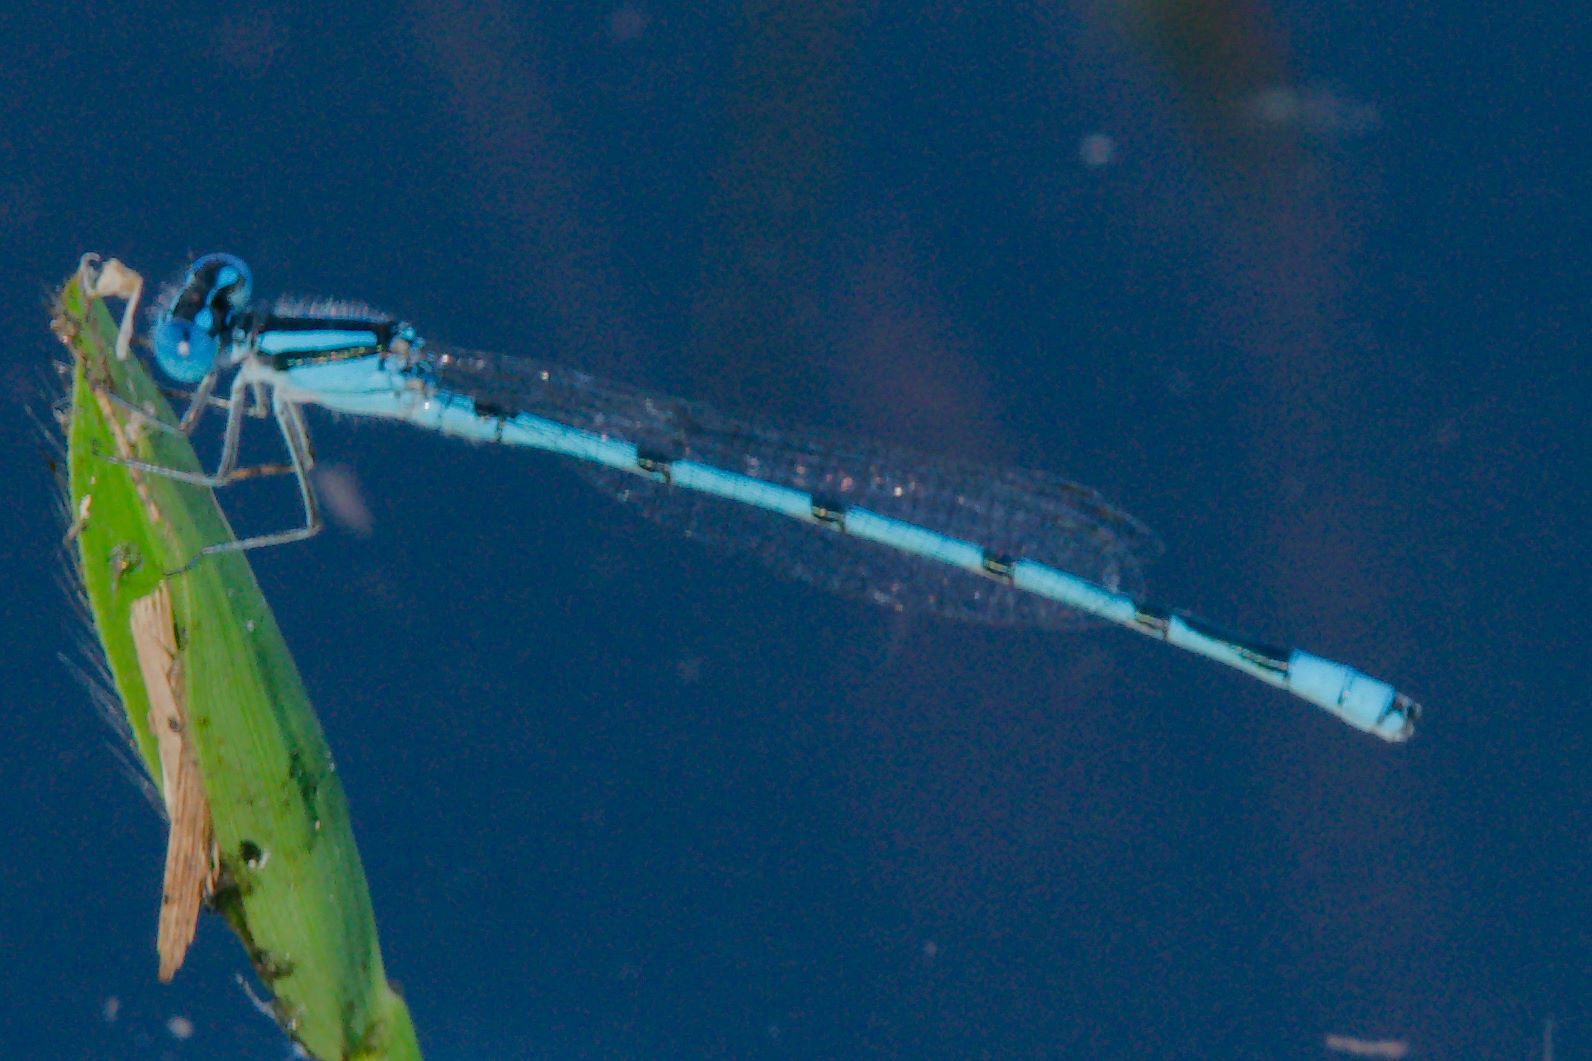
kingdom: Animalia
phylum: Arthropoda
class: Insecta
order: Odonata
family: Coenagrionidae
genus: Enallagma
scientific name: Enallagma doubledayi
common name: Atlantic bluet
